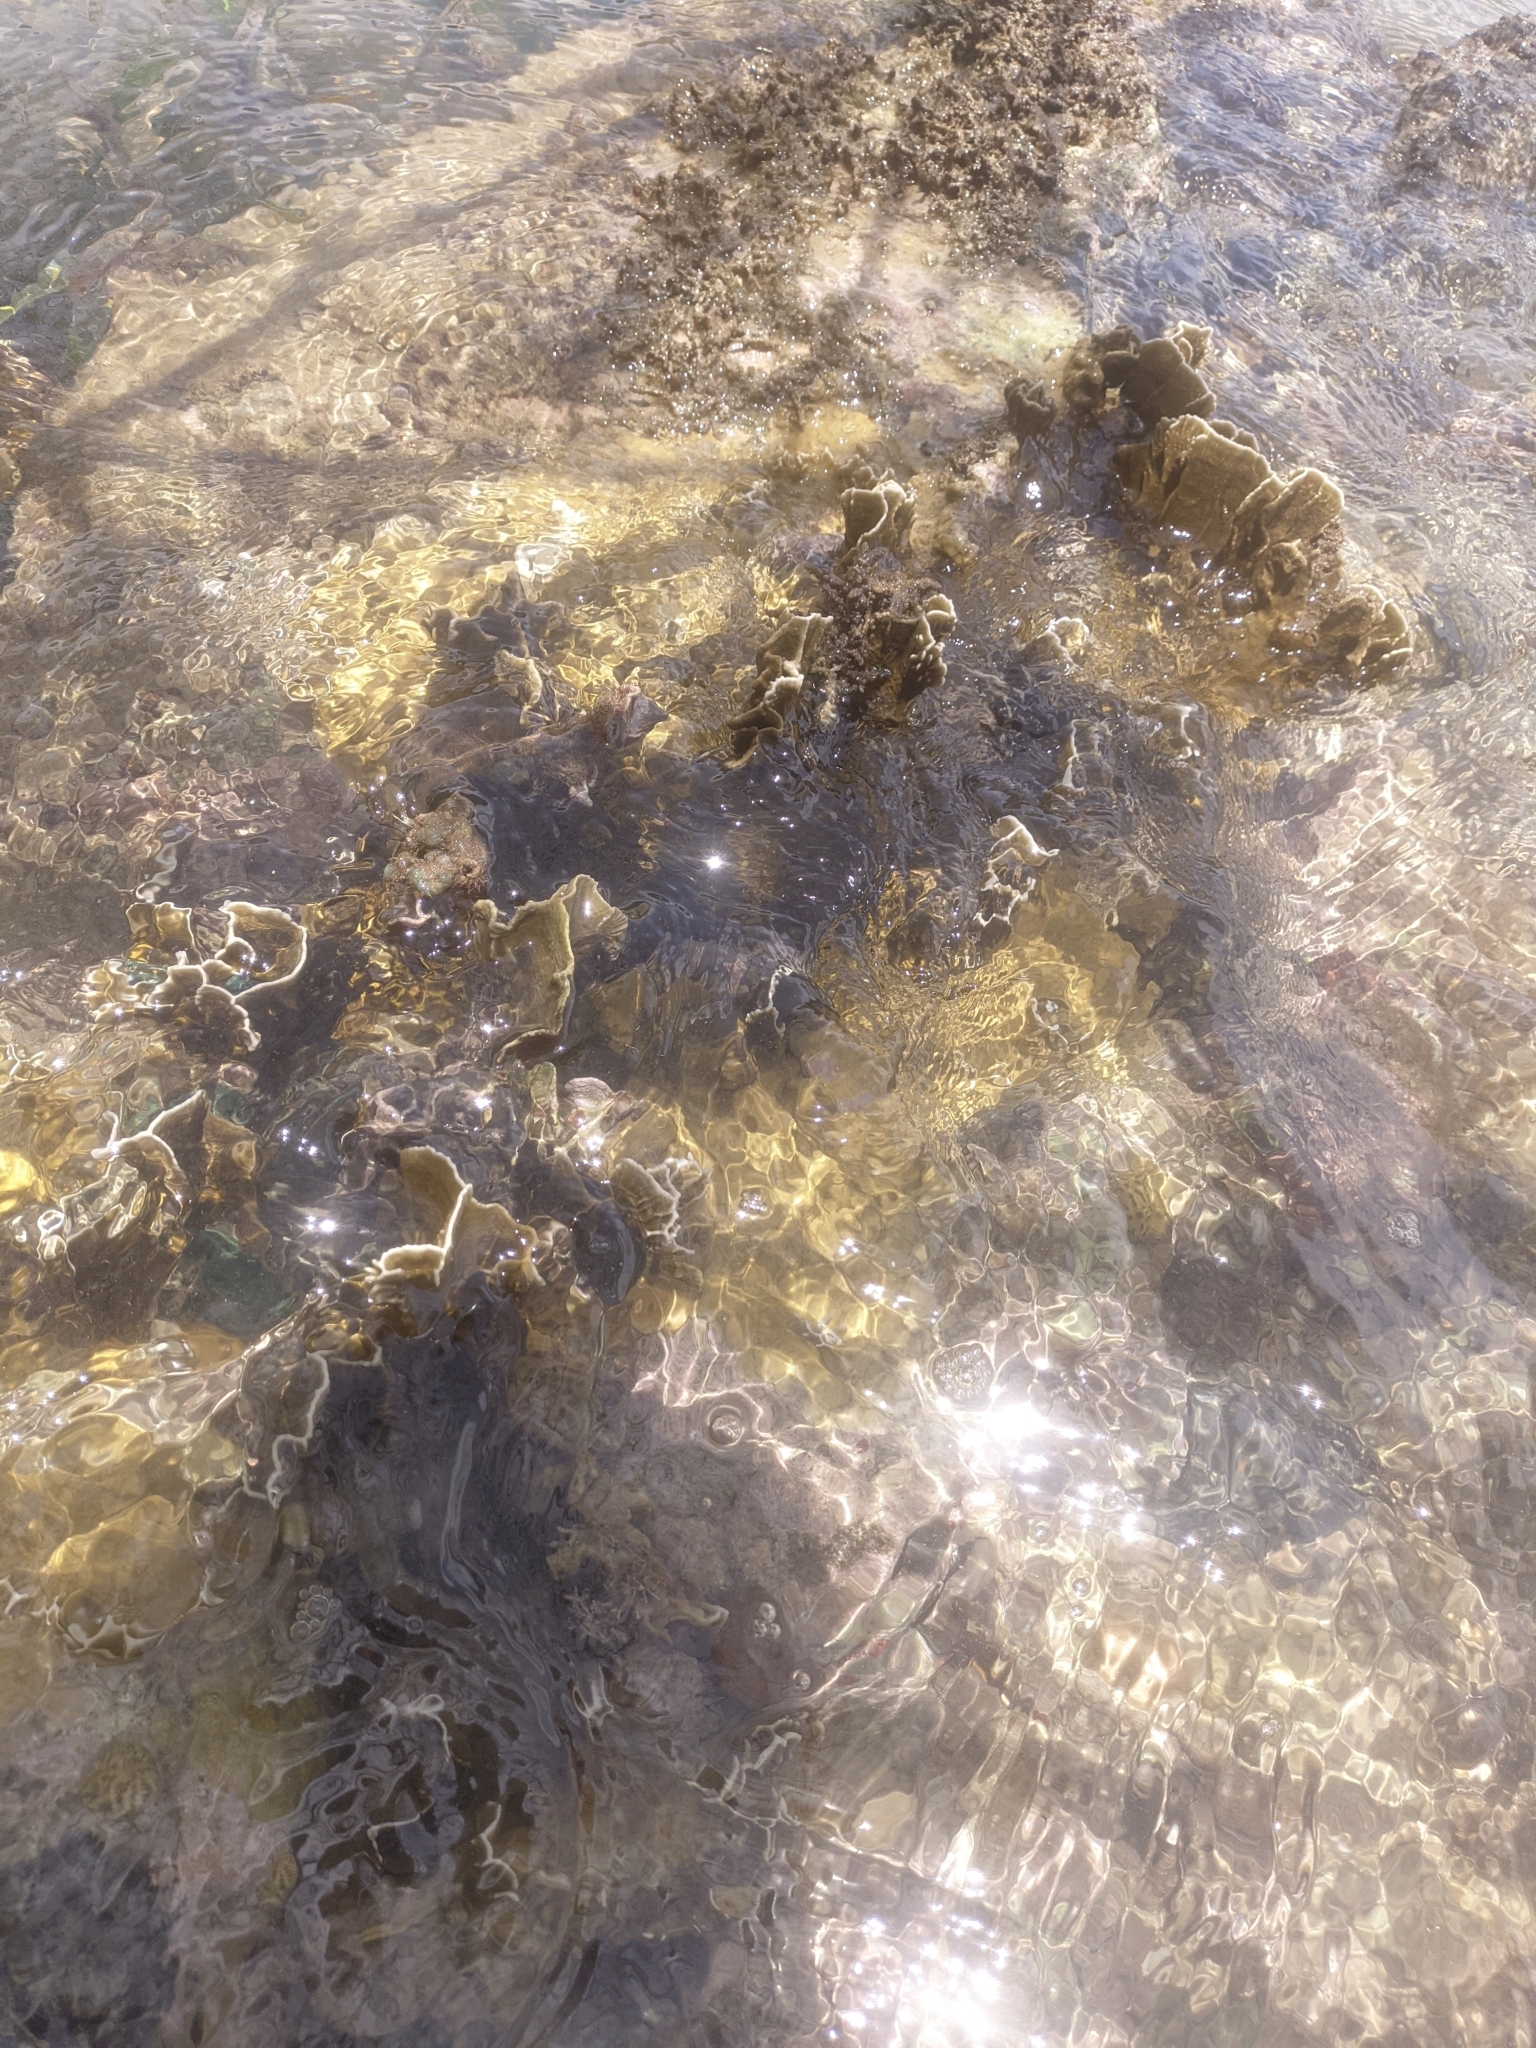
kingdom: Animalia
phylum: Cnidaria
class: Hydrozoa
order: Anthoathecata
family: Milleporidae
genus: Millepora
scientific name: Millepora complanata
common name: Bladed fire coral
